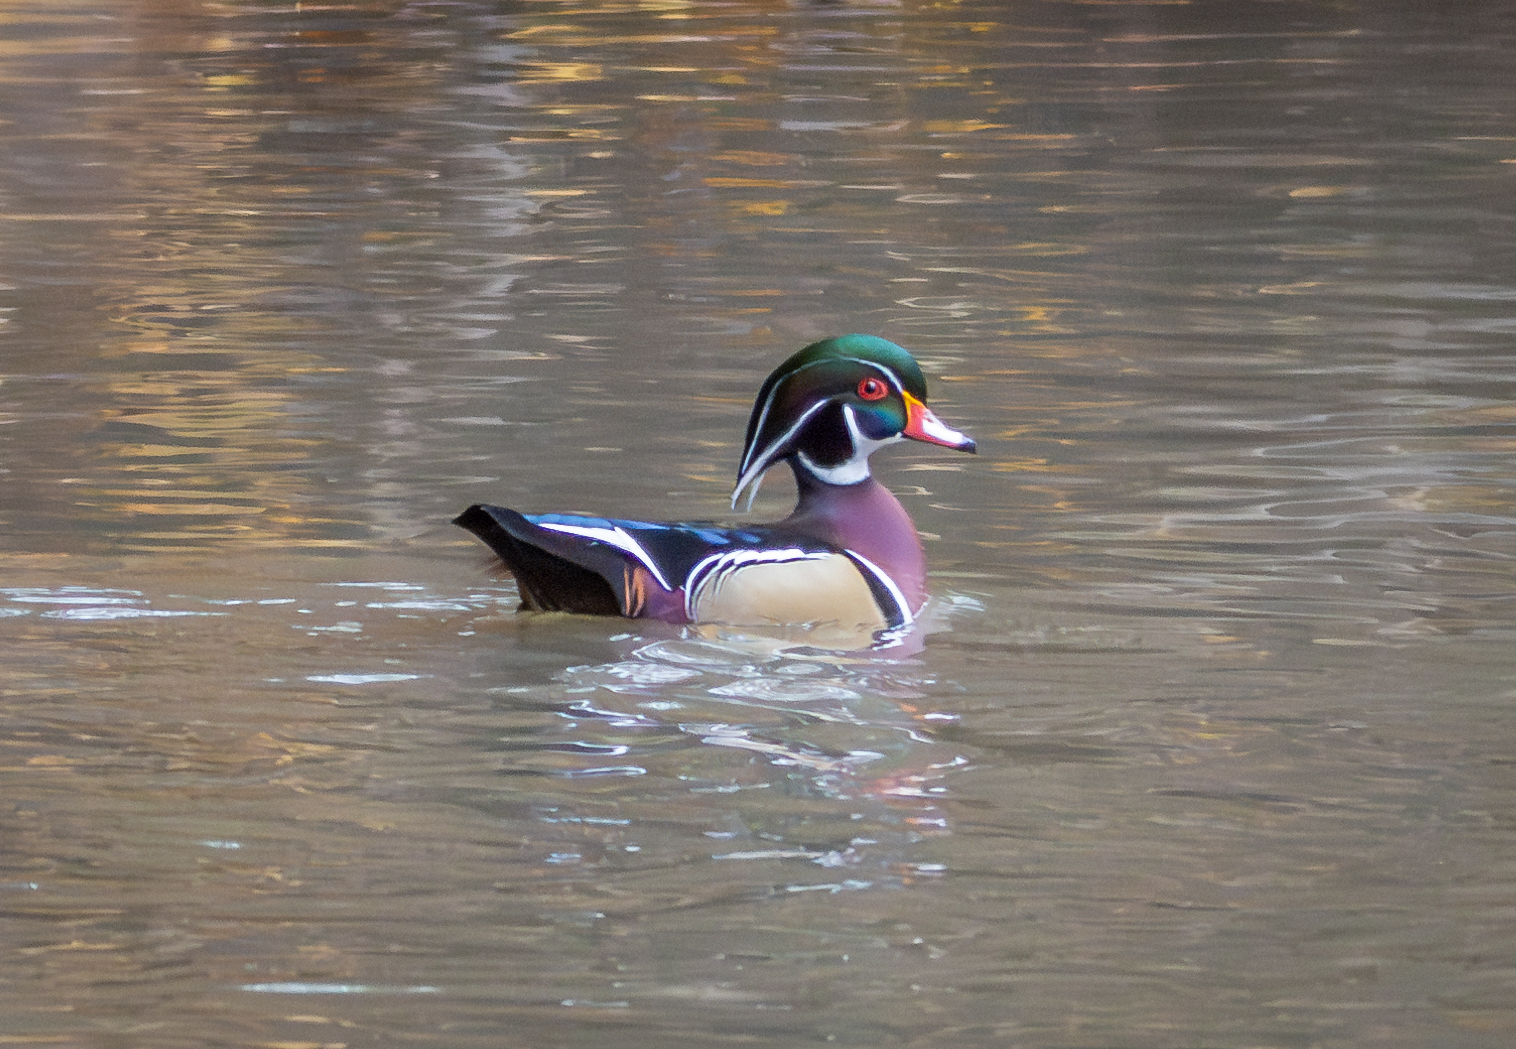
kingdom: Animalia
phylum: Chordata
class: Aves
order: Anseriformes
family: Anatidae
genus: Aix
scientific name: Aix sponsa
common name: Wood duck
